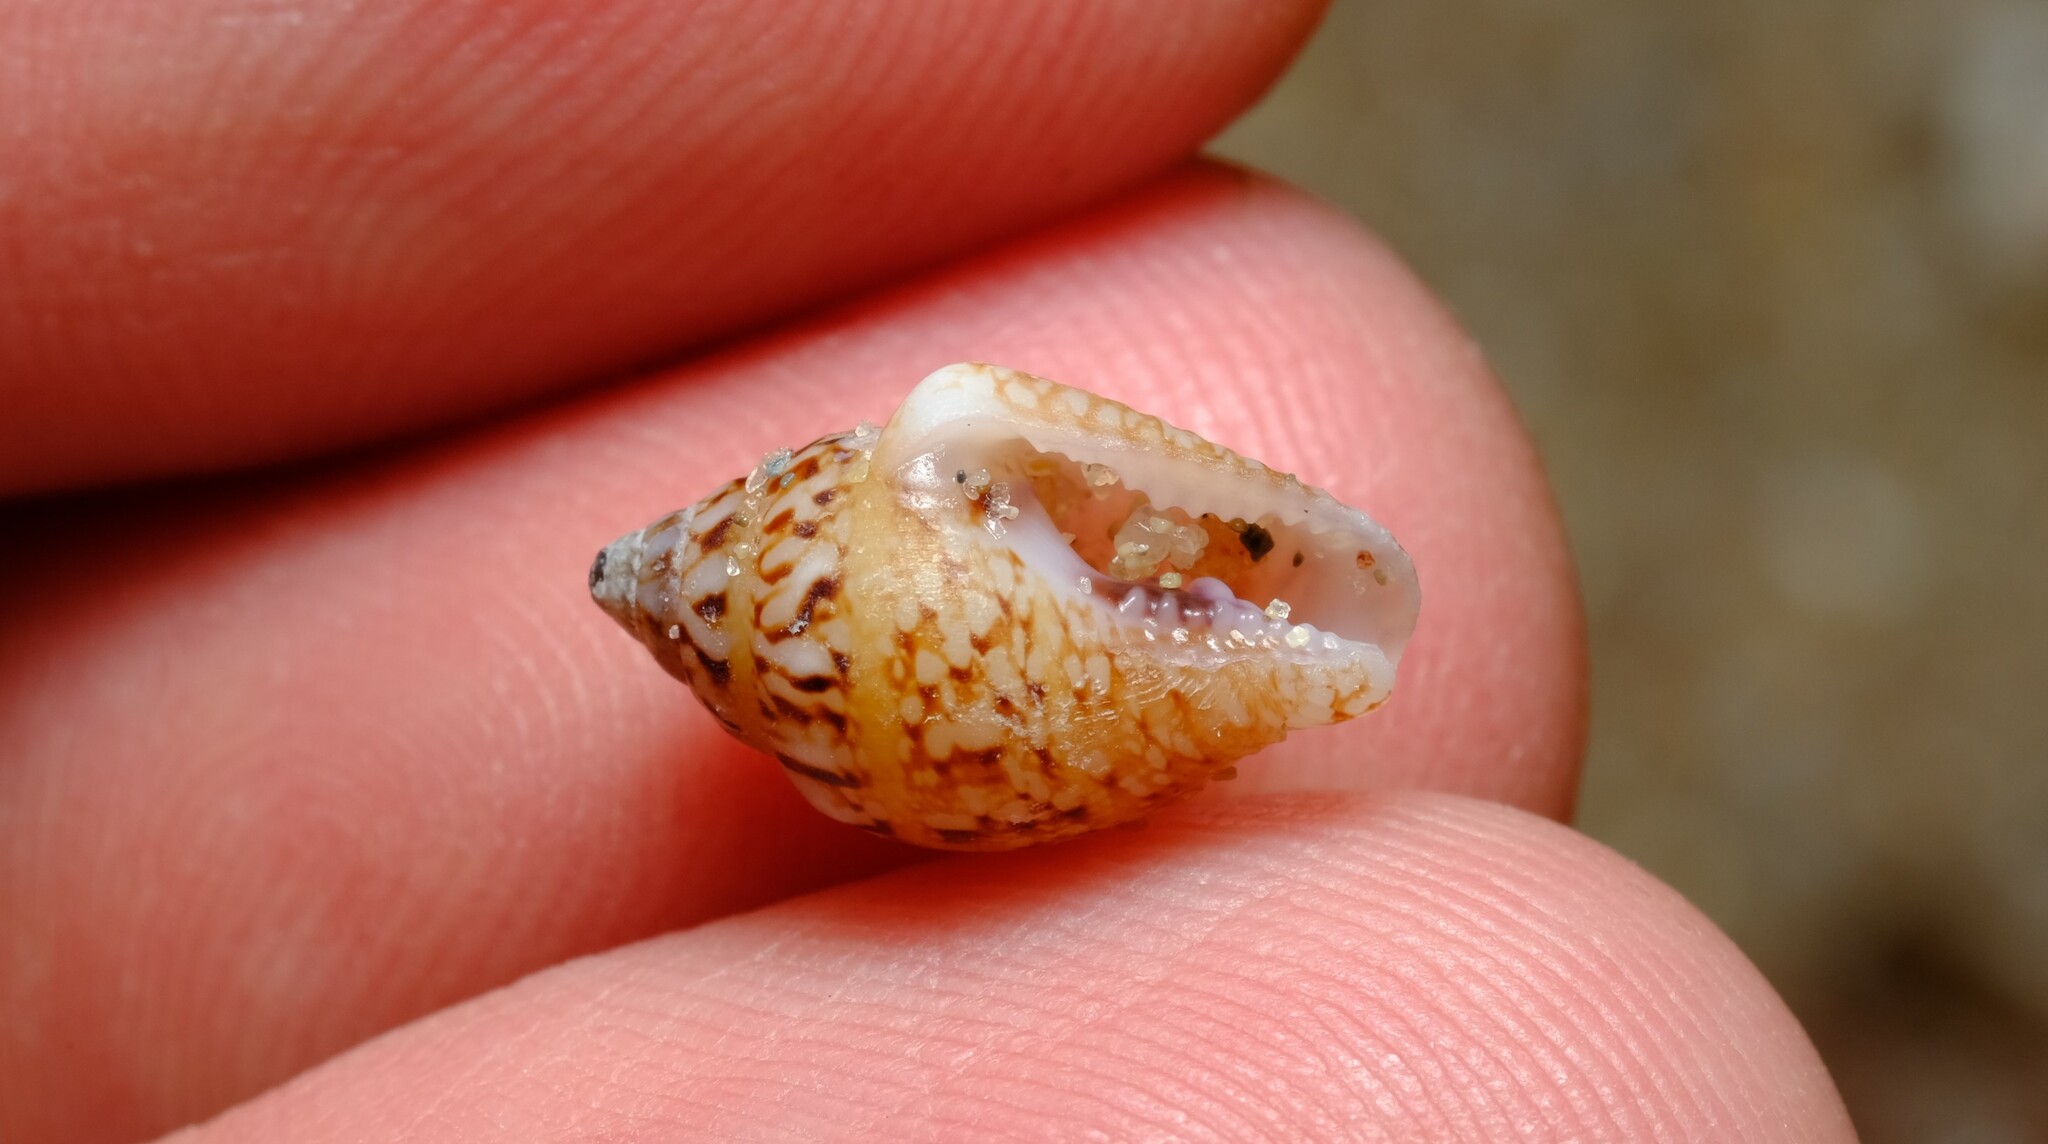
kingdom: Animalia
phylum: Mollusca
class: Gastropoda
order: Neogastropoda
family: Columbellidae
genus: Euplica
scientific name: Euplica bidentata
